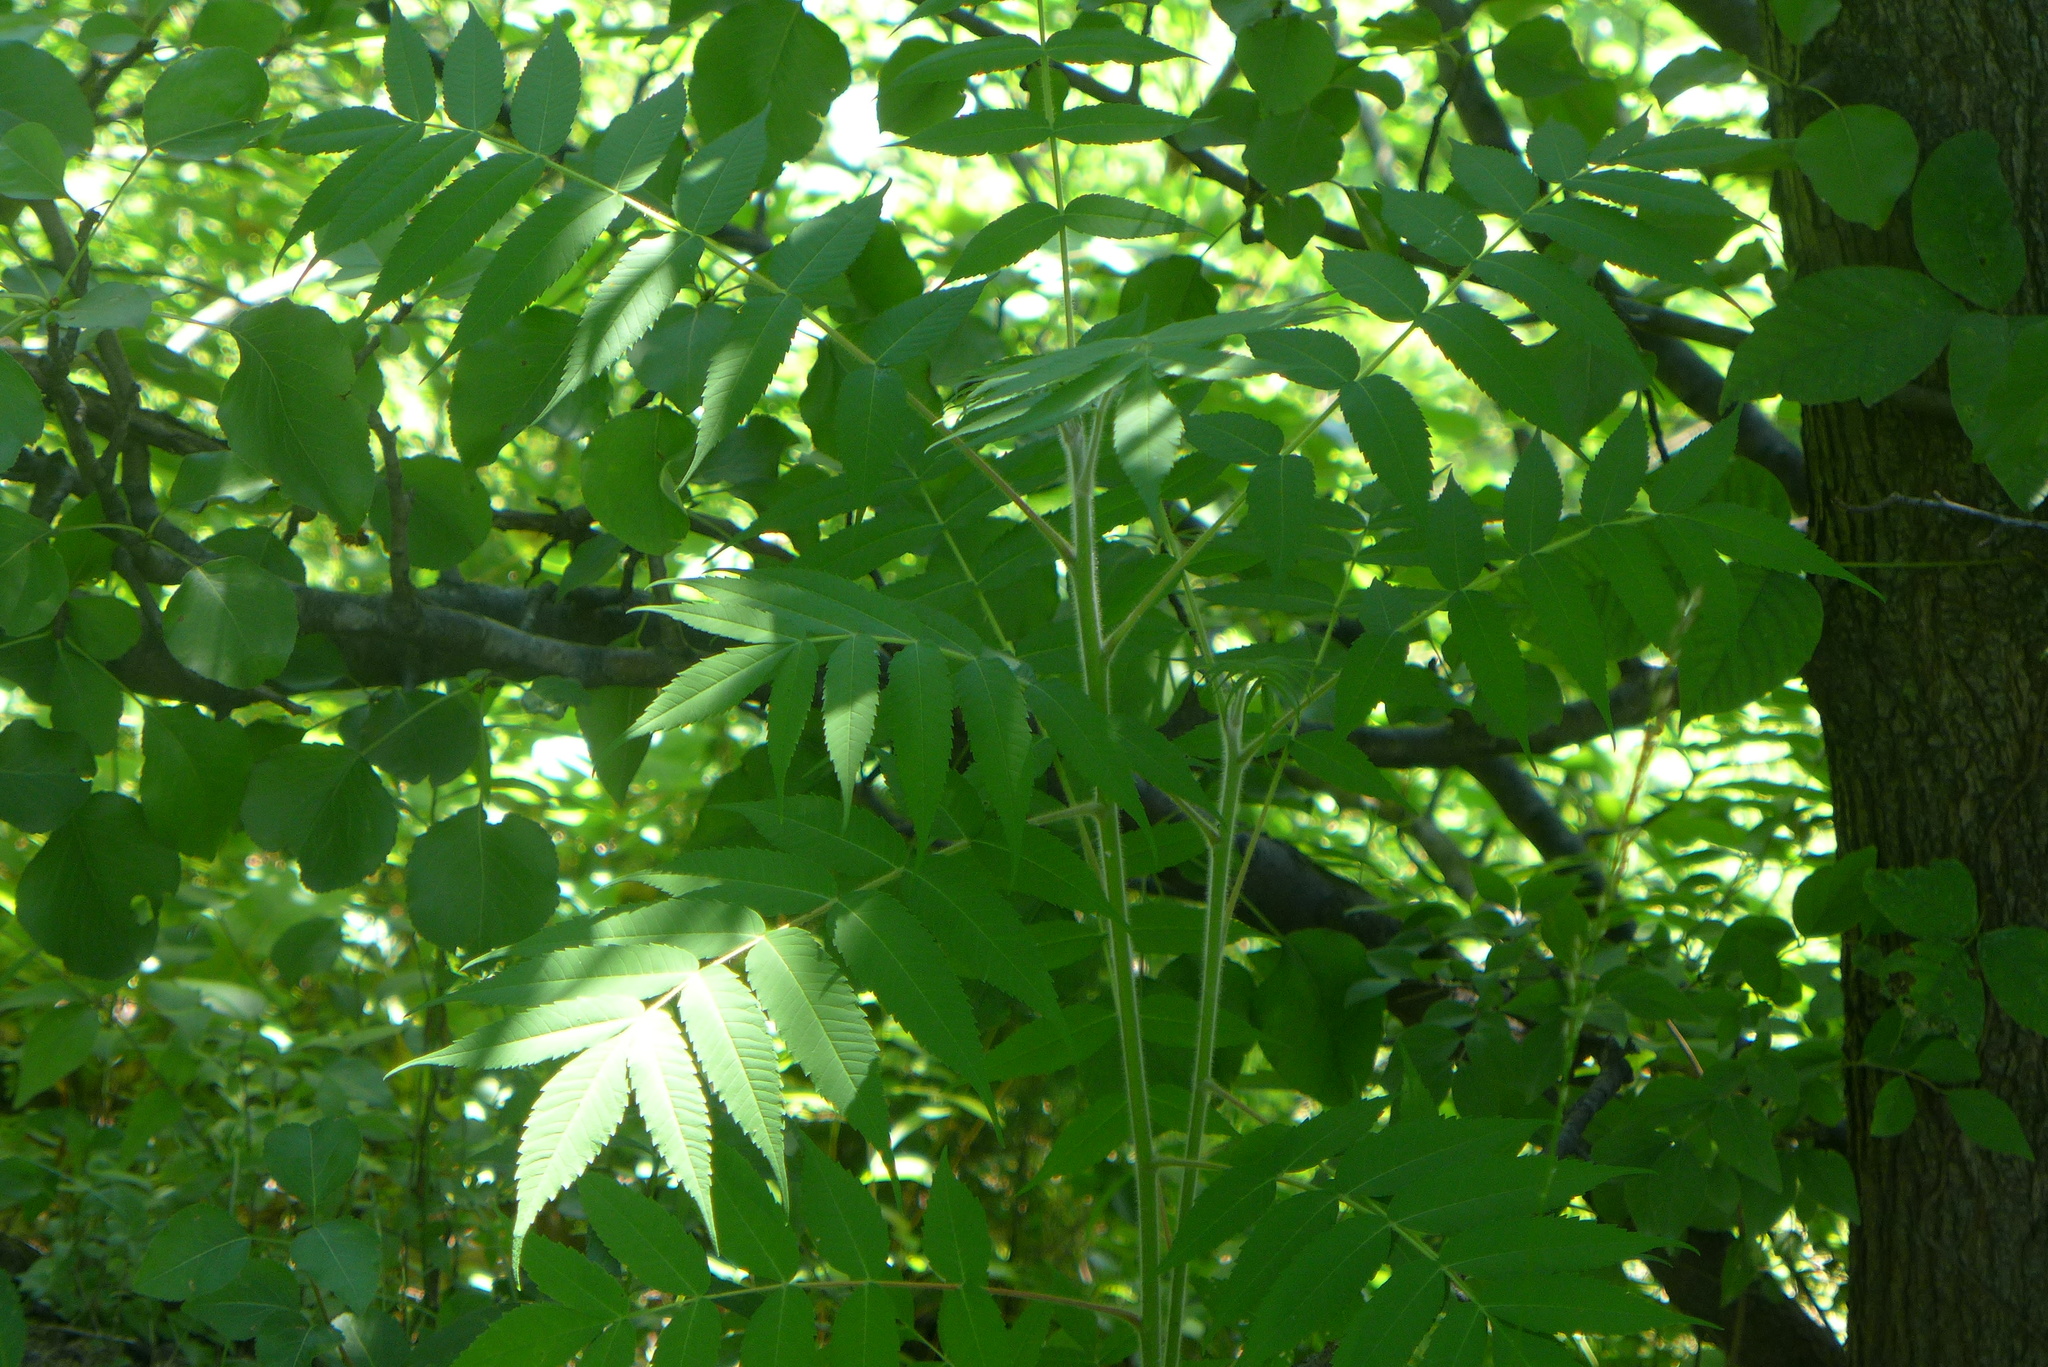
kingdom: Plantae
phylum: Tracheophyta
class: Magnoliopsida
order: Sapindales
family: Anacardiaceae
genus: Rhus
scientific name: Rhus typhina
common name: Staghorn sumac
